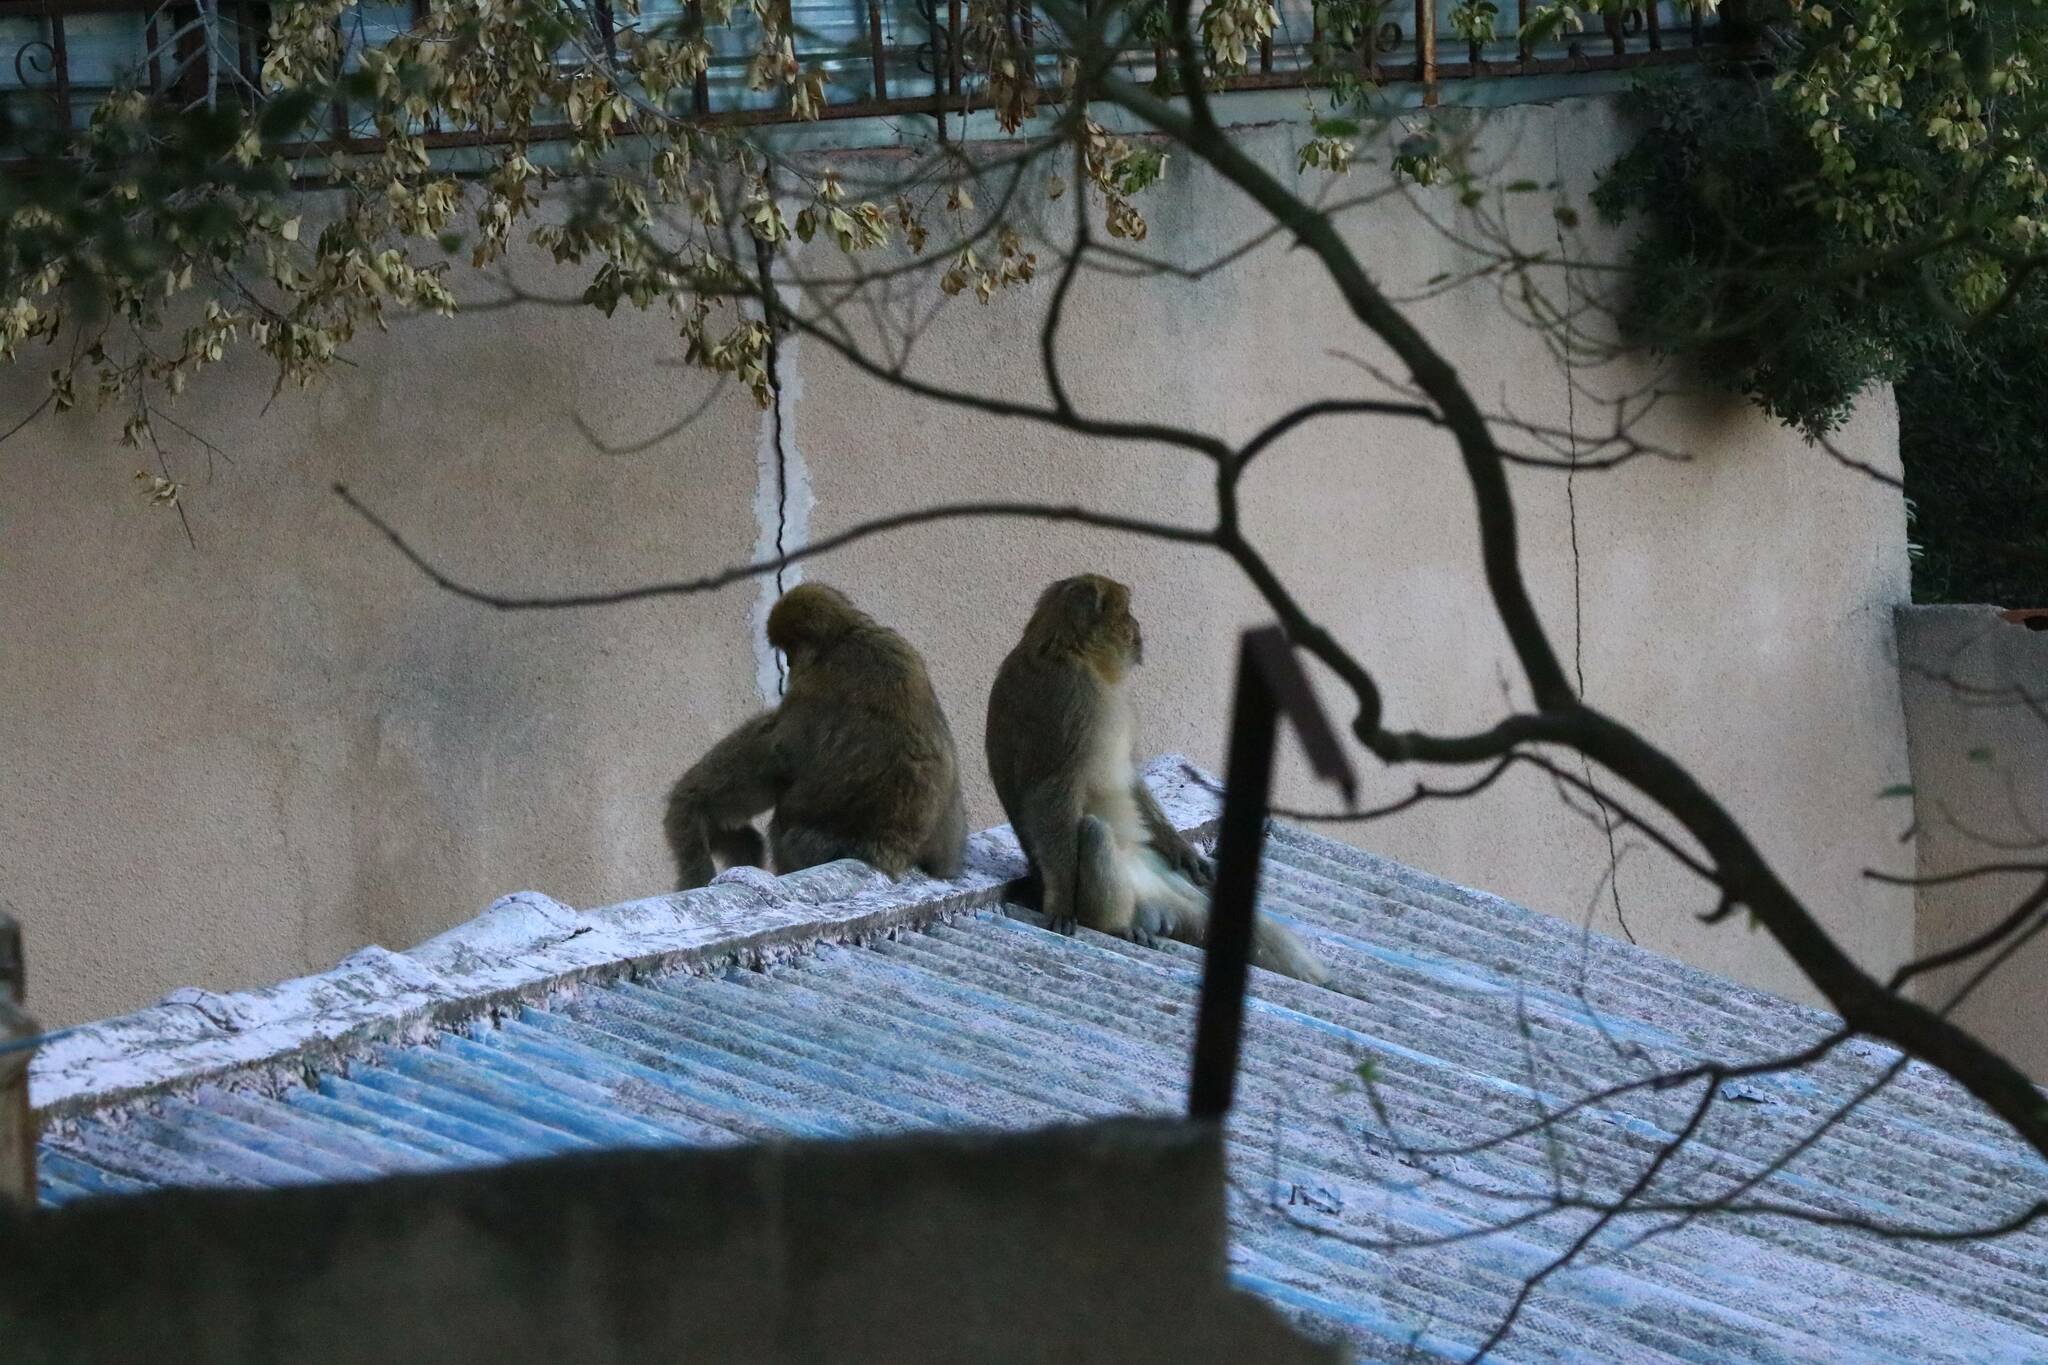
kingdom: Animalia
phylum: Chordata
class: Mammalia
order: Primates
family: Cercopithecidae
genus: Macaca
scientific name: Macaca sylvanus
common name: Barbary macaque
